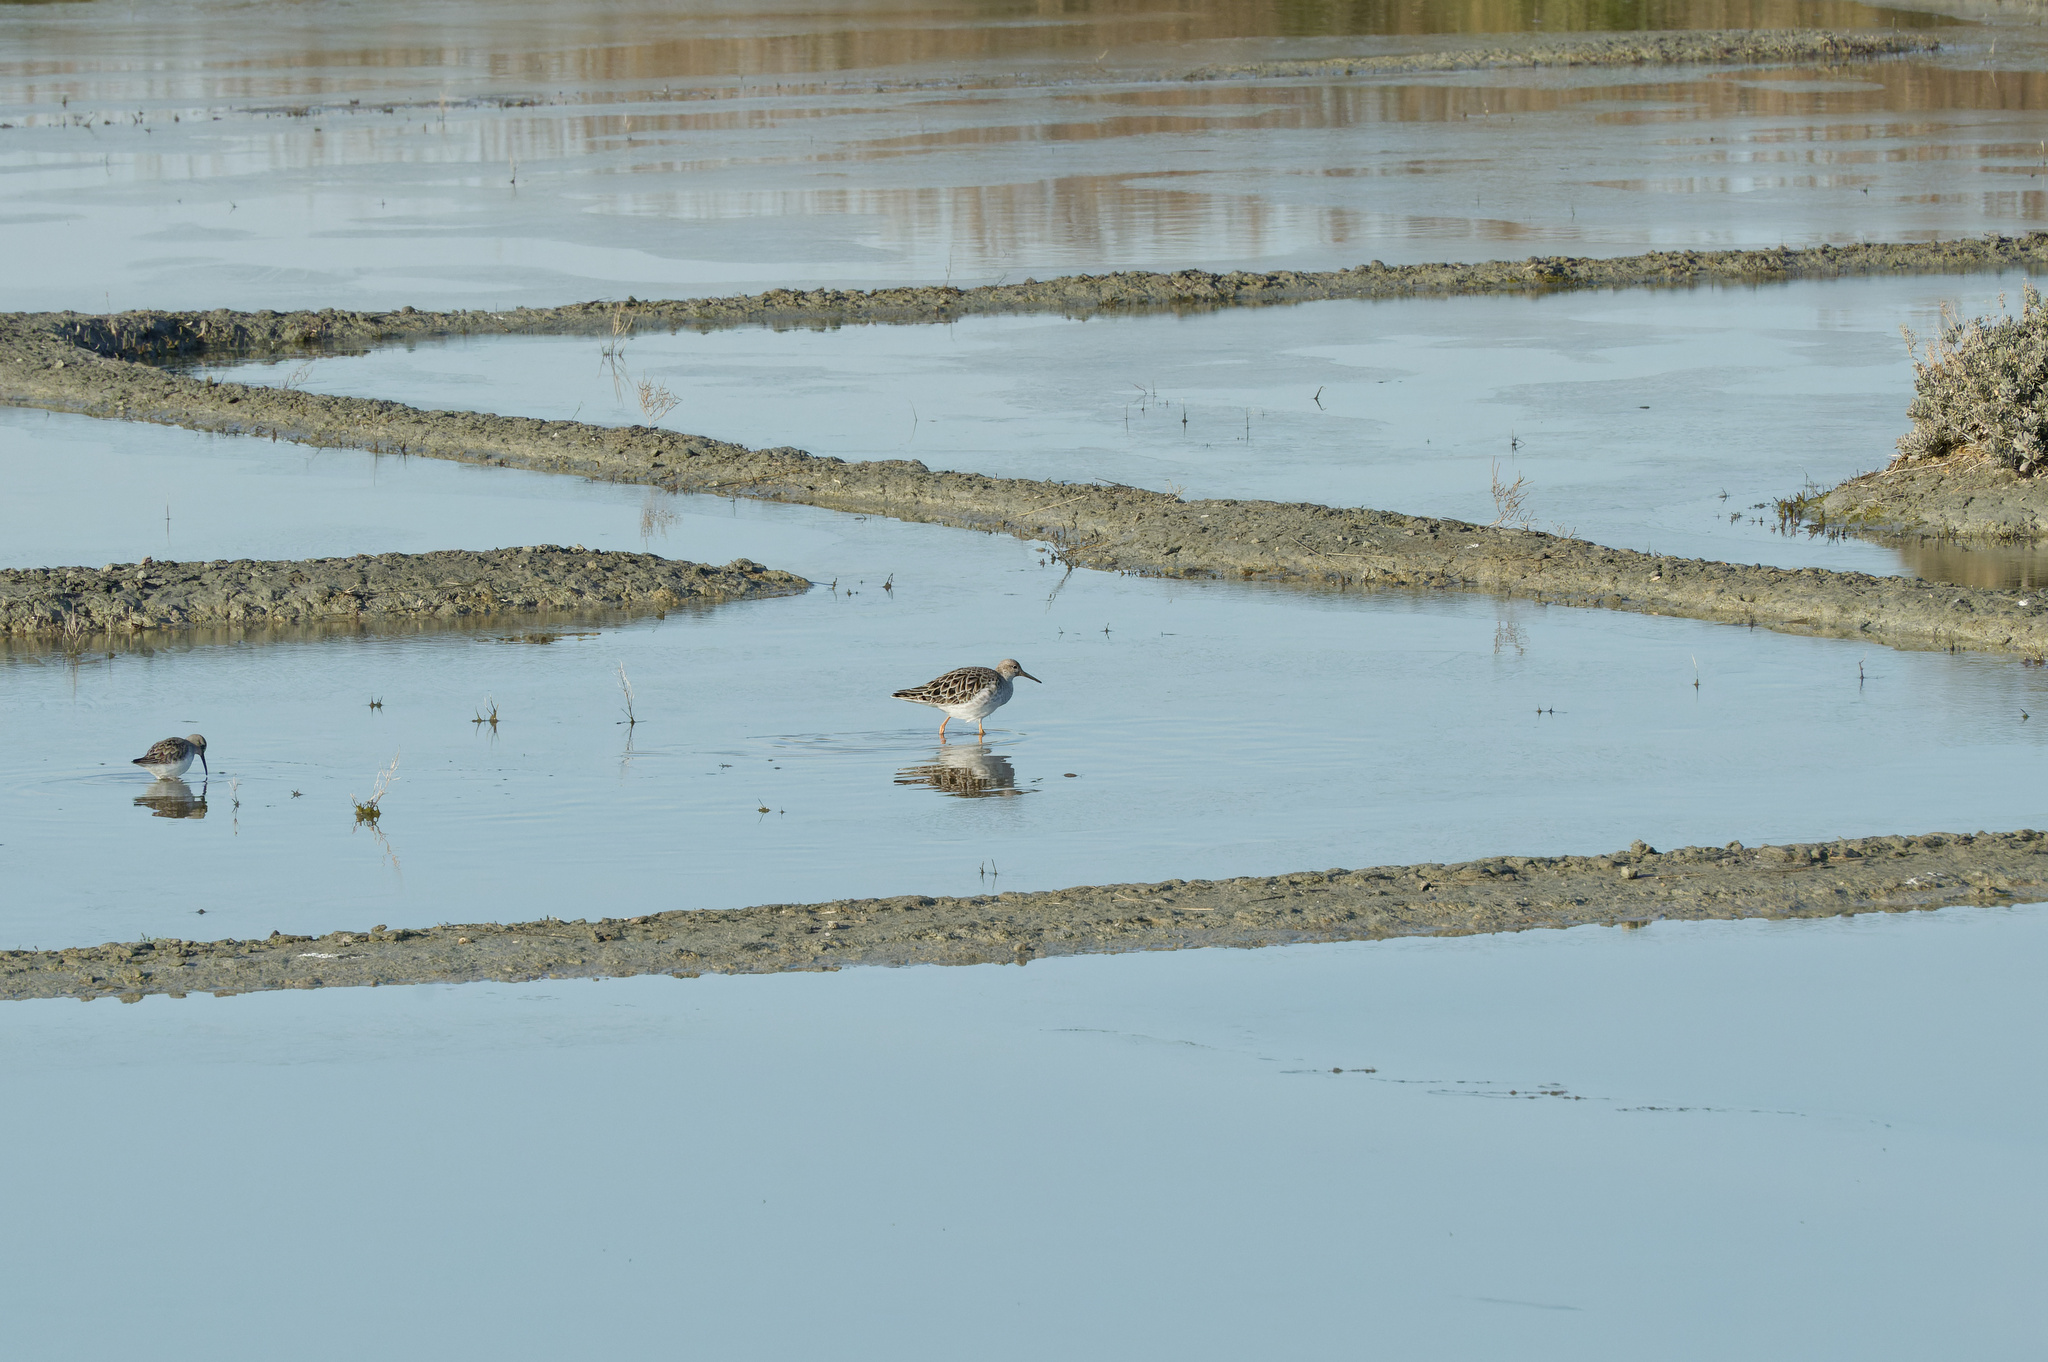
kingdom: Animalia
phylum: Chordata
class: Aves
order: Charadriiformes
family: Scolopacidae
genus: Calidris
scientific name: Calidris pugnax
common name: Ruff
